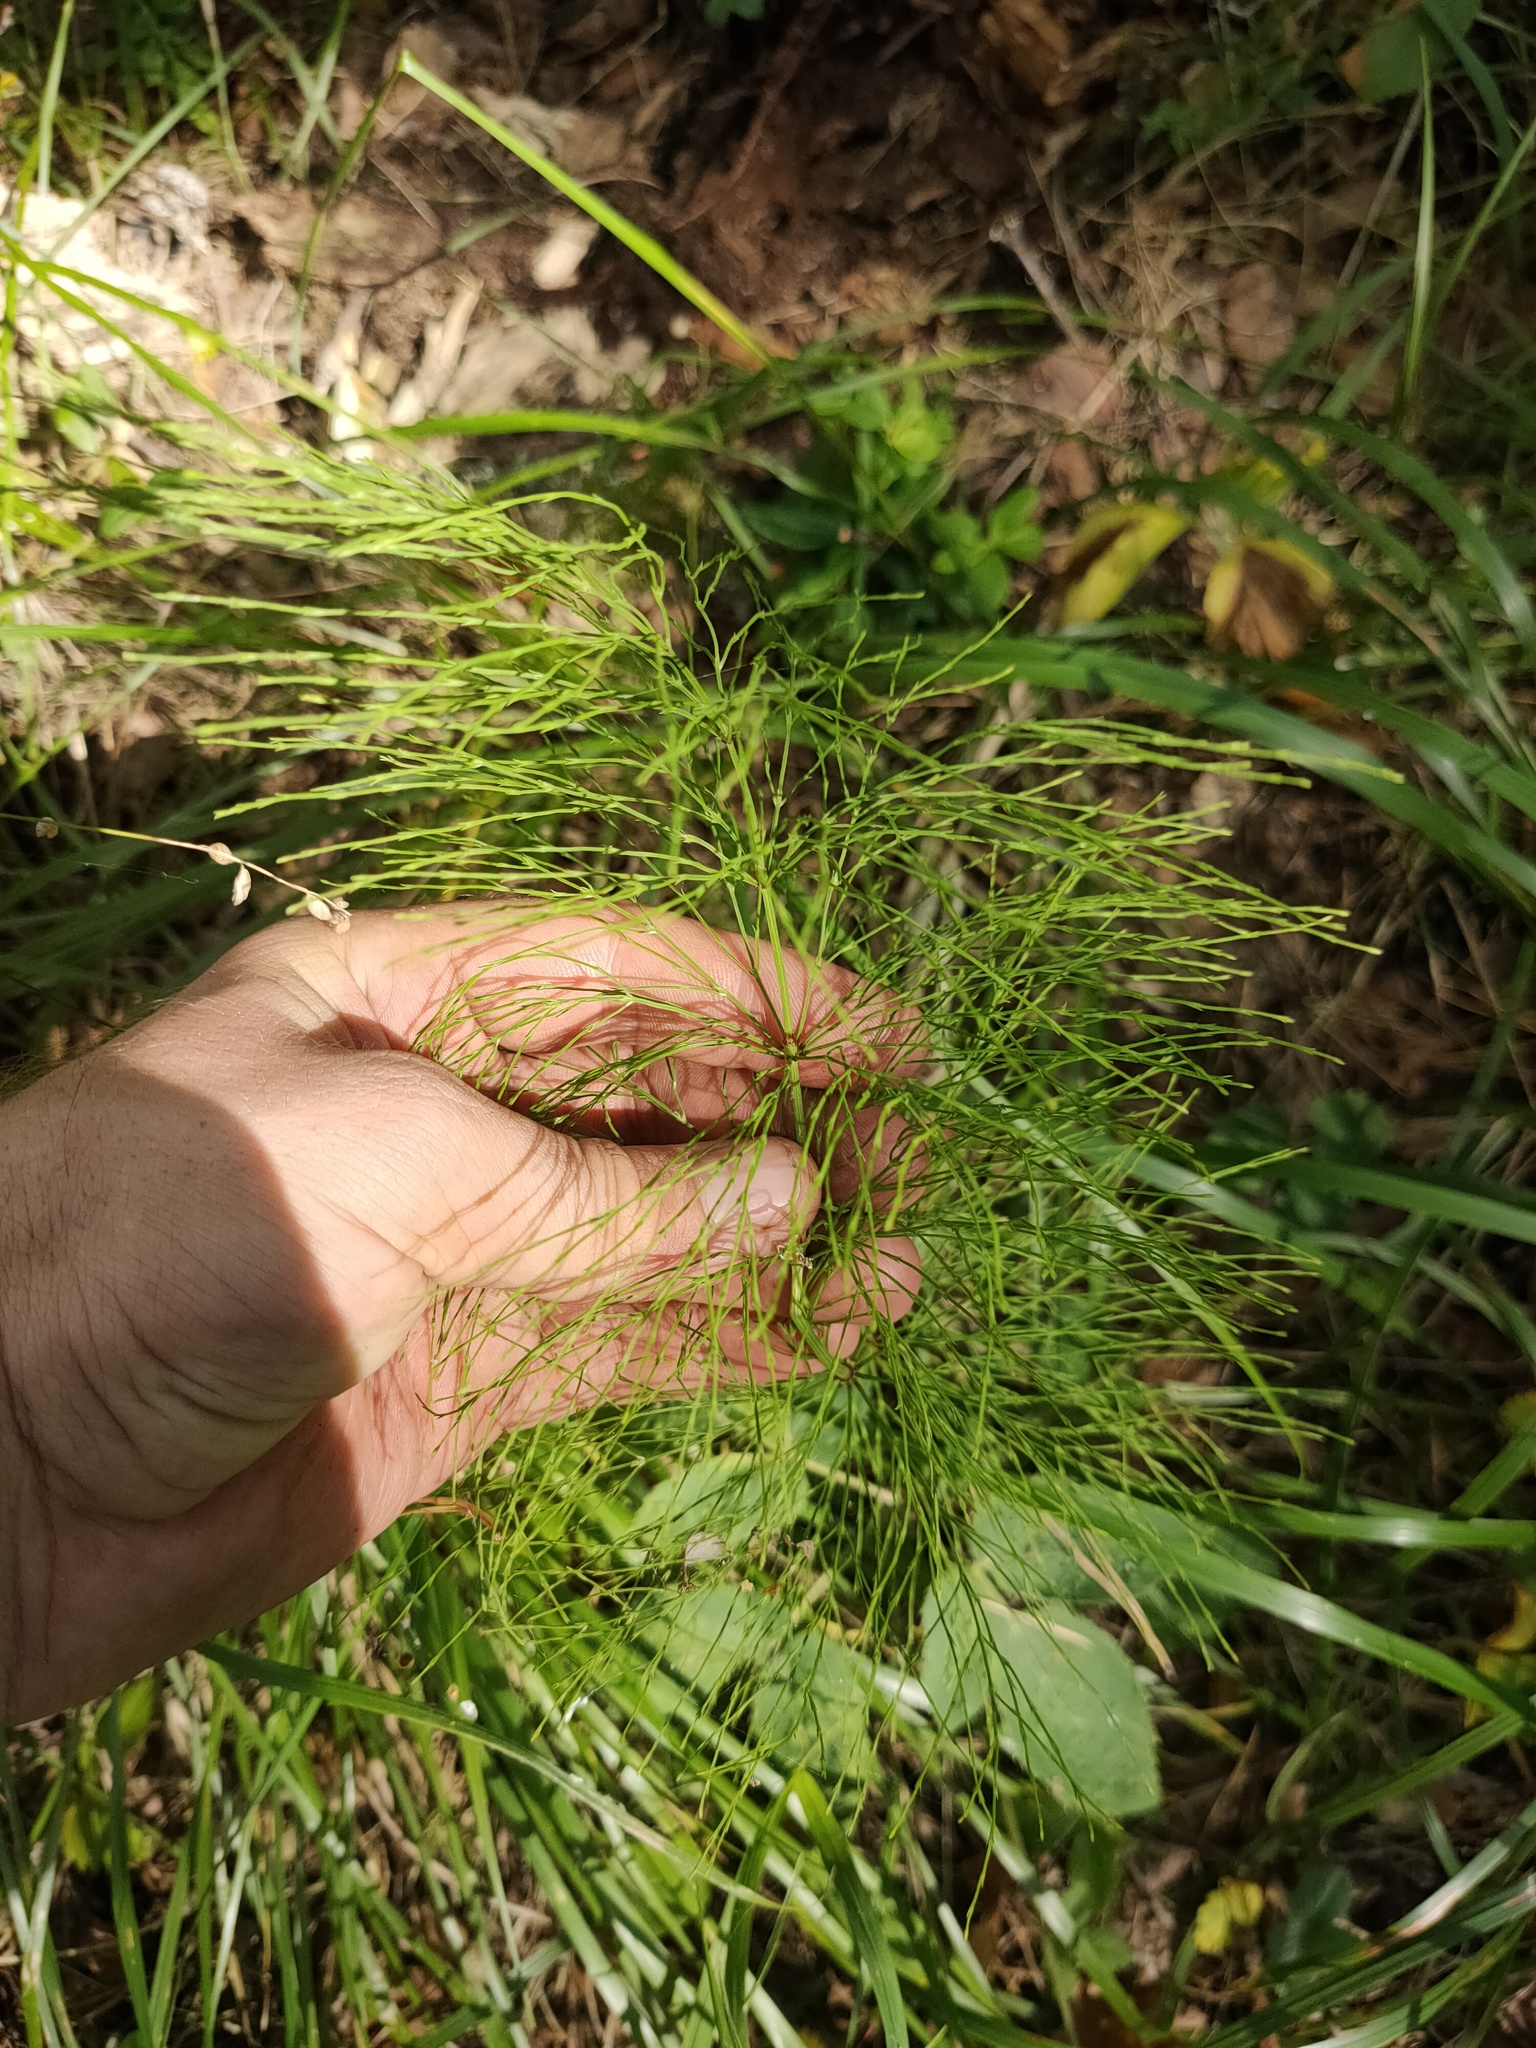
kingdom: Plantae
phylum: Tracheophyta
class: Polypodiopsida
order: Equisetales
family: Equisetaceae
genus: Equisetum
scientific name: Equisetum sylvaticum
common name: Wood horsetail
